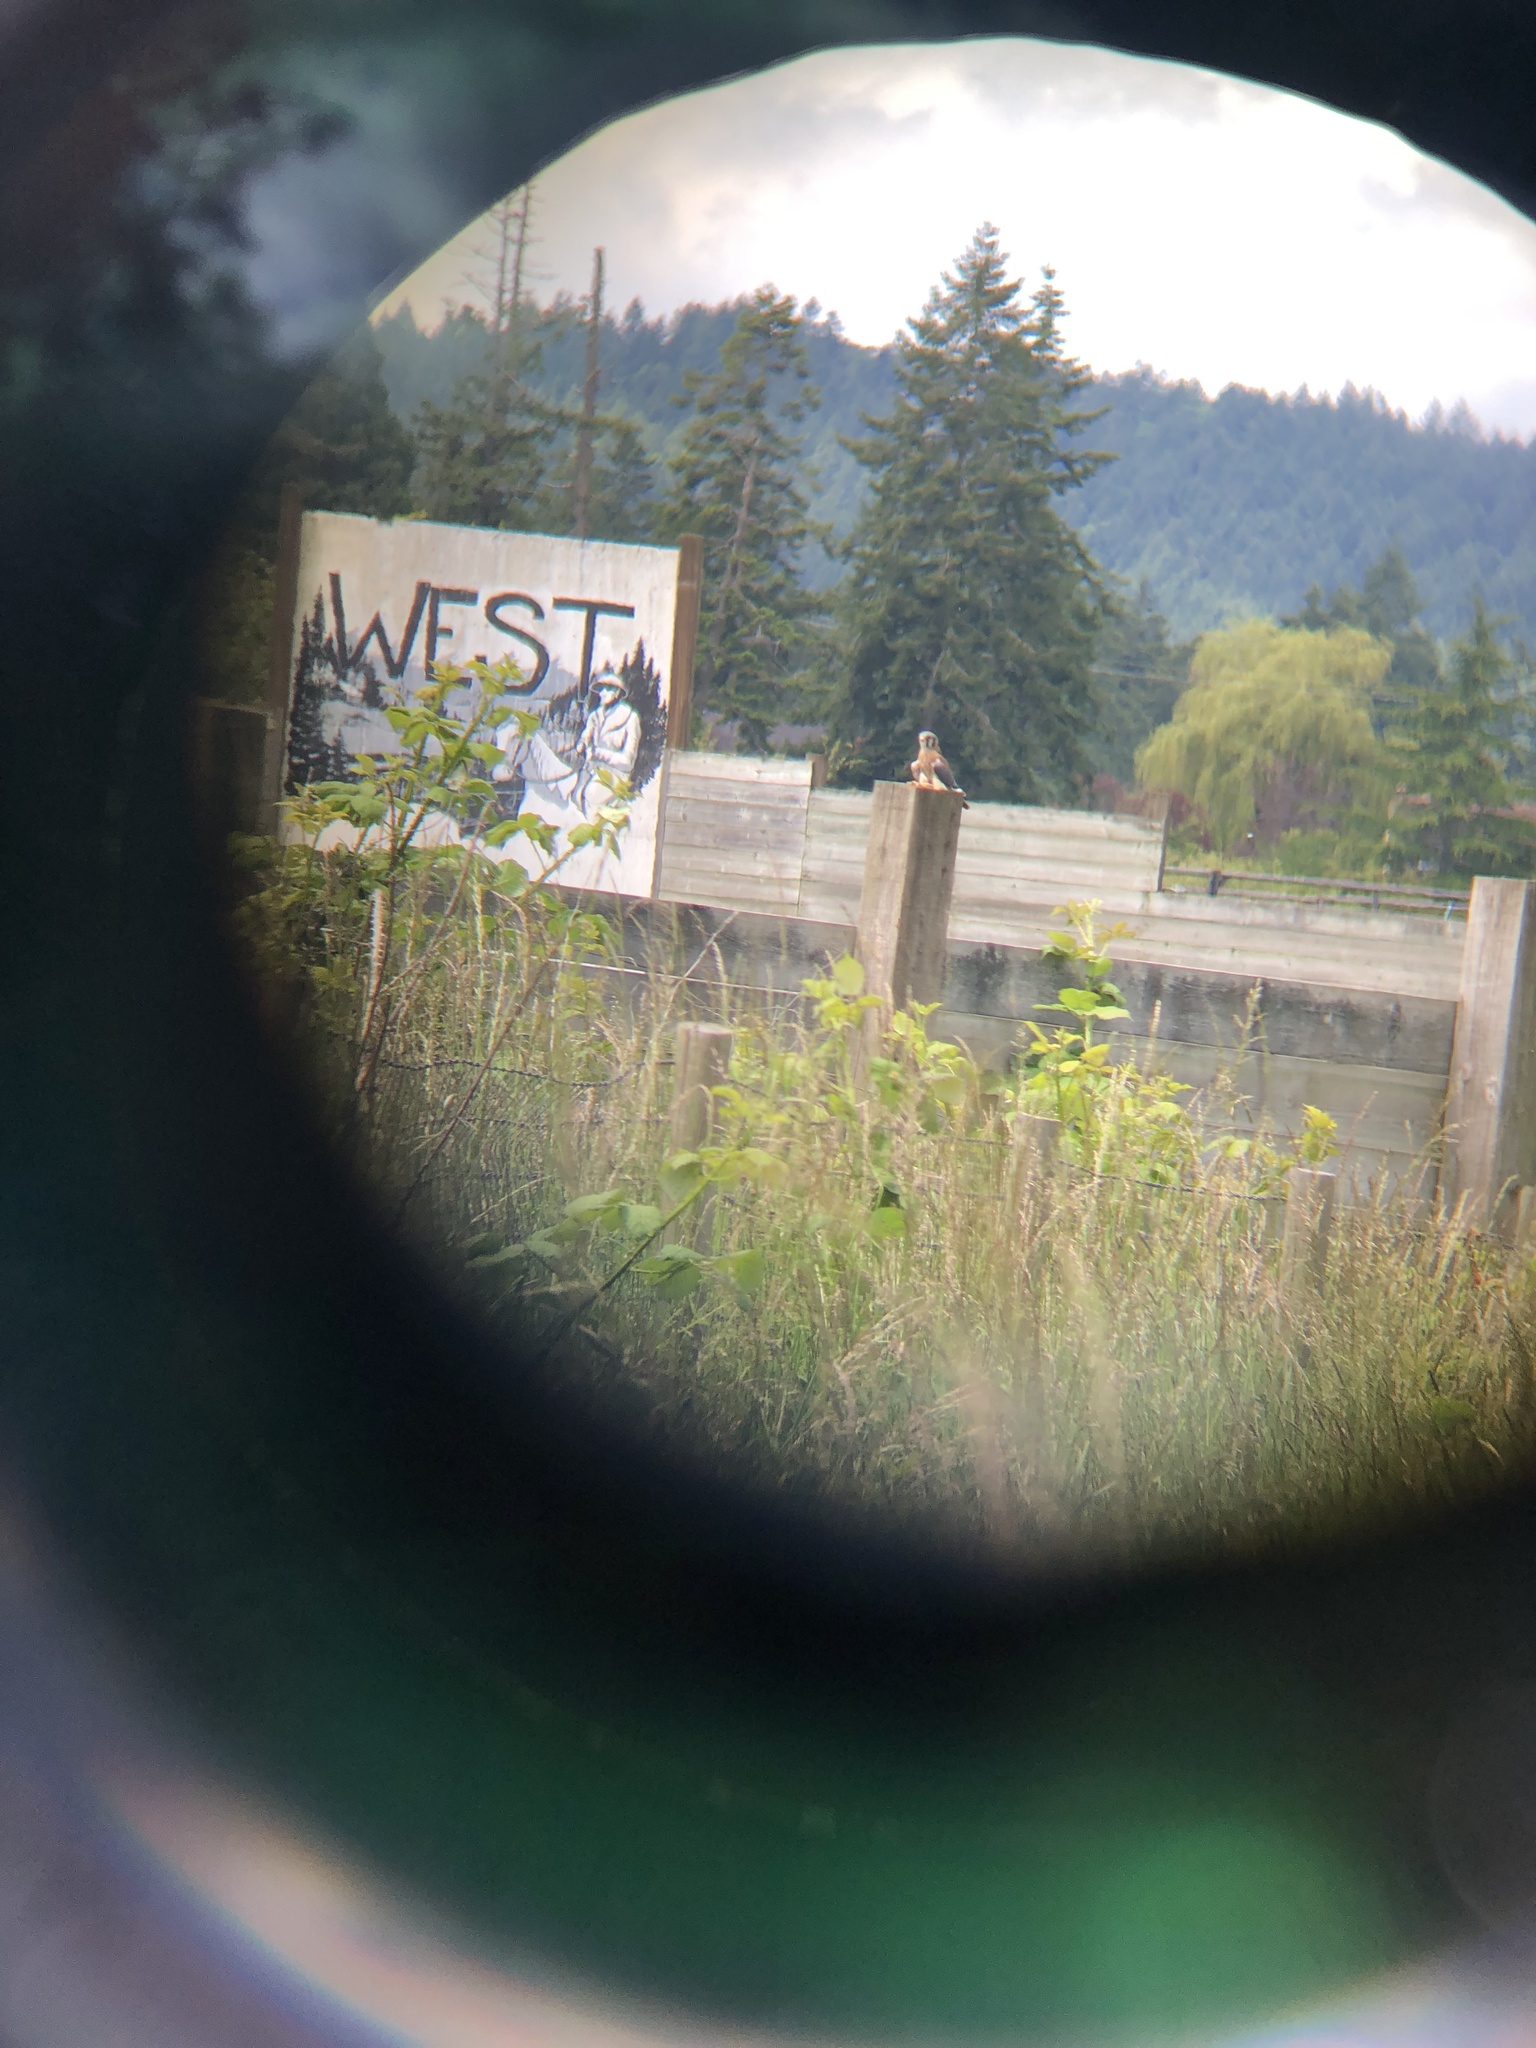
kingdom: Animalia
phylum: Chordata
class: Aves
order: Falconiformes
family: Falconidae
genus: Falco
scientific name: Falco sparverius
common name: American kestrel
